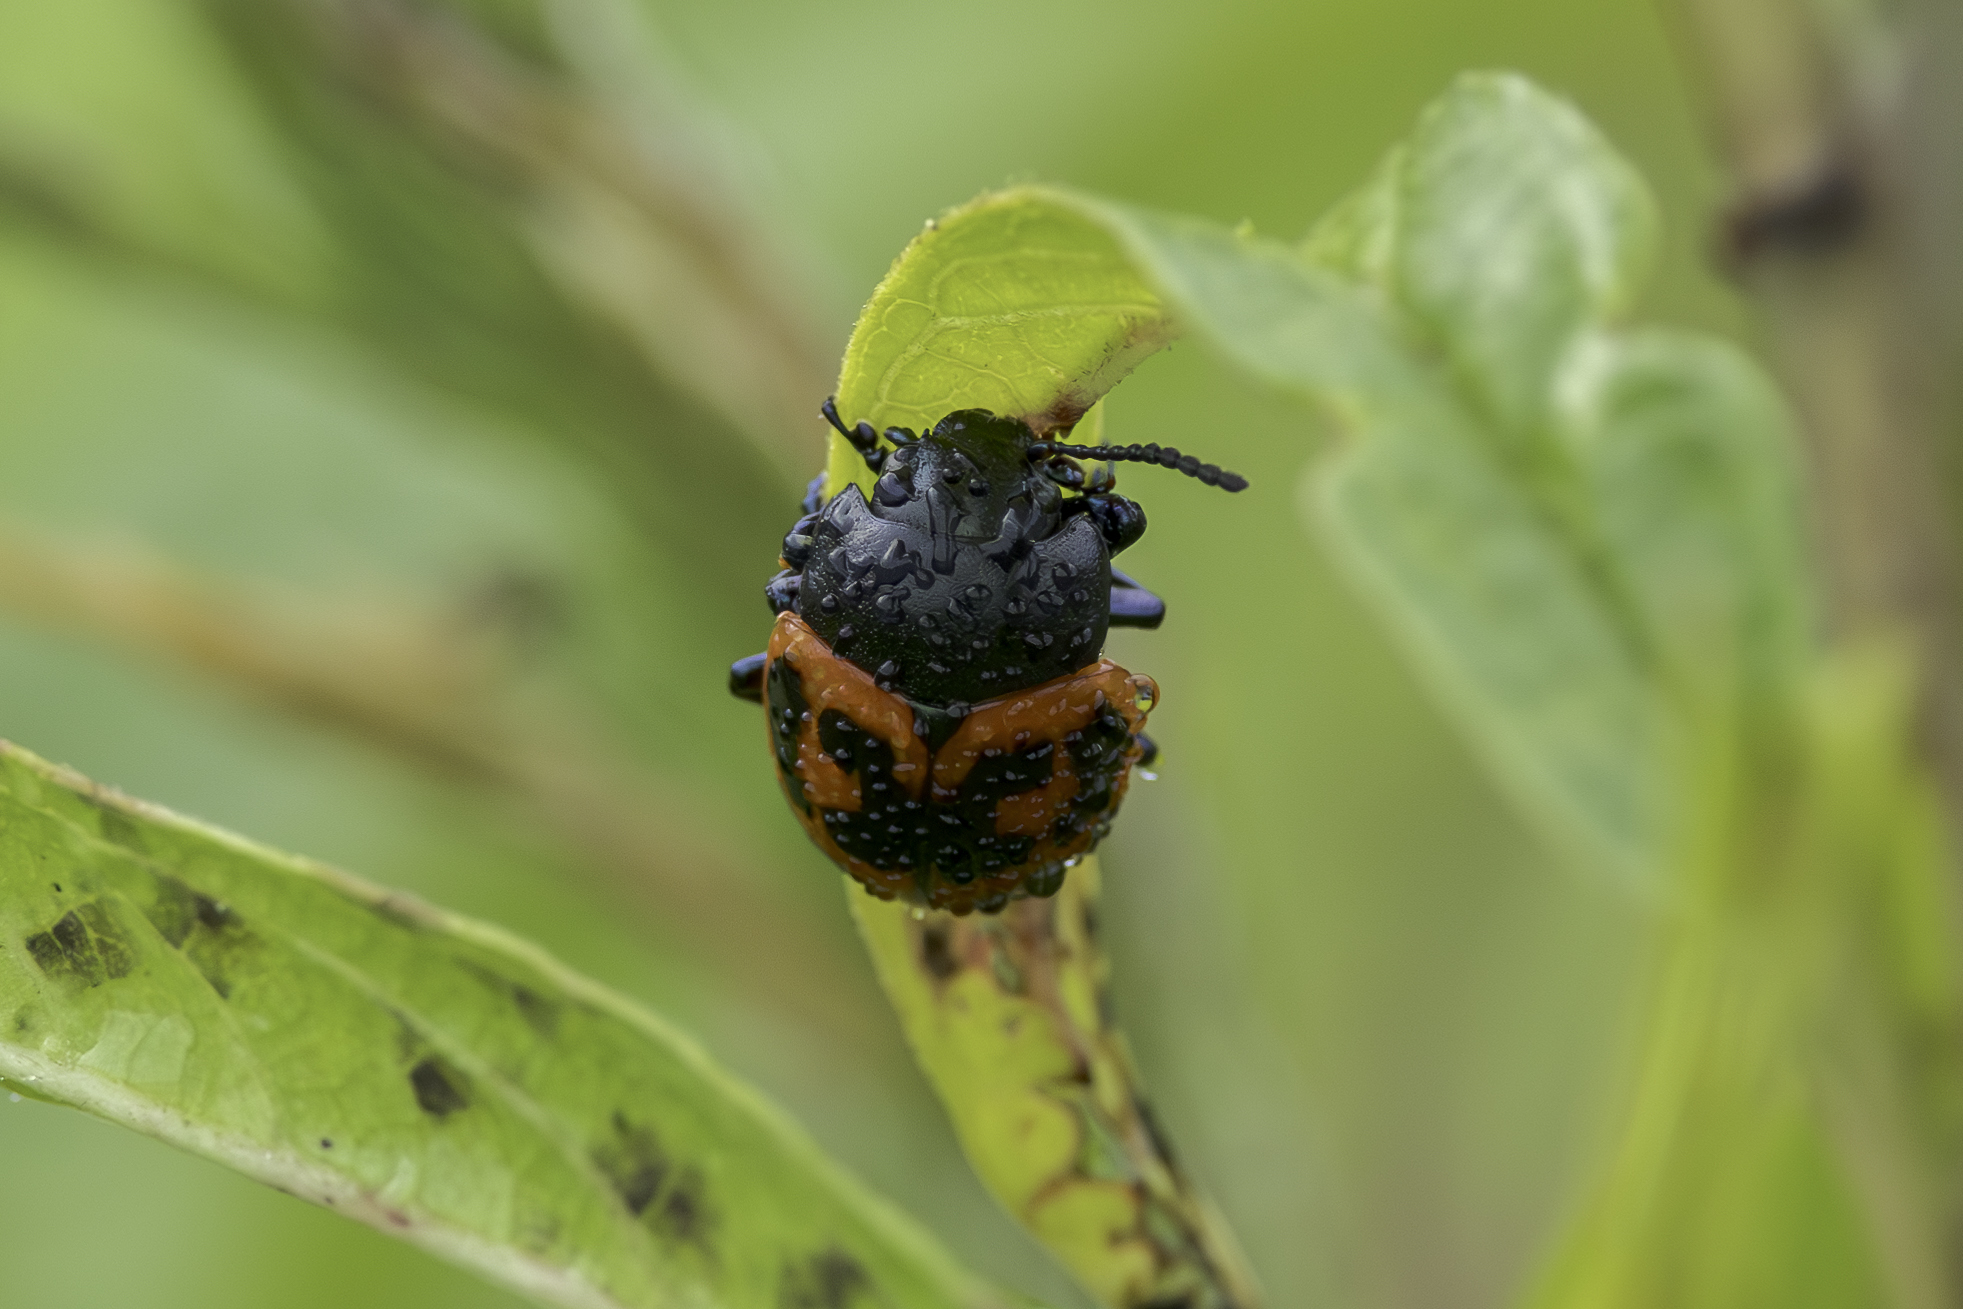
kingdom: Animalia
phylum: Arthropoda
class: Insecta
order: Coleoptera
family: Chrysomelidae
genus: Labidomera
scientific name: Labidomera clivicollis
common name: Swamp milkweed leaf beetle
